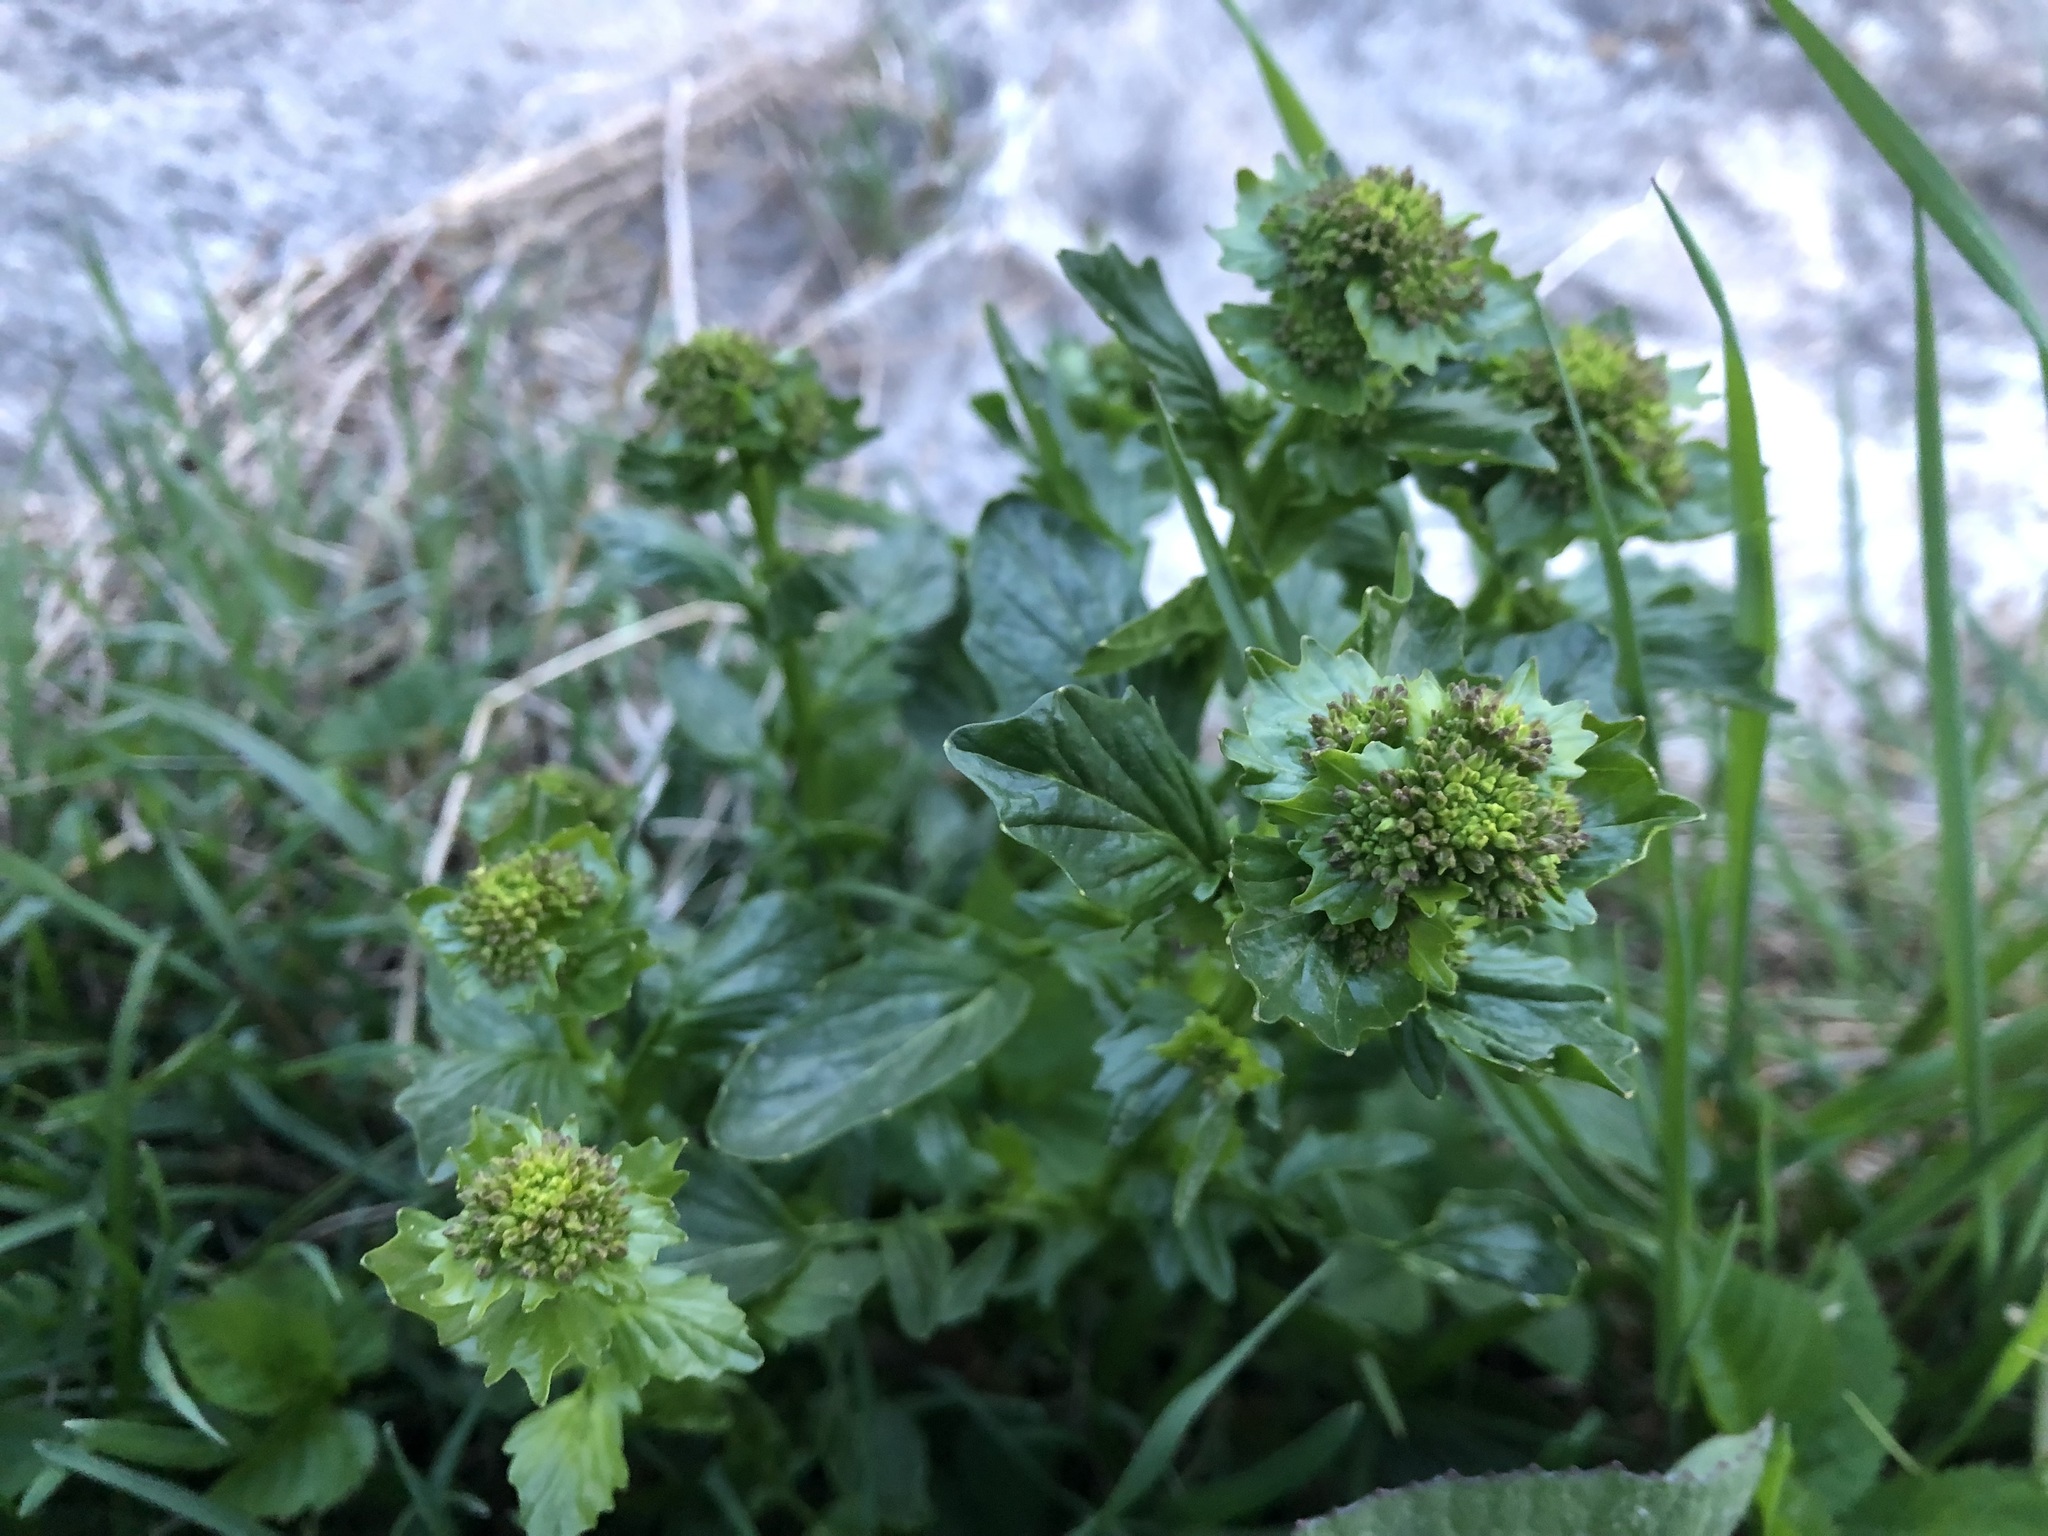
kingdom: Plantae
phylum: Tracheophyta
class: Magnoliopsida
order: Brassicales
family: Brassicaceae
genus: Barbarea
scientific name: Barbarea vulgaris
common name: Cressy-greens
